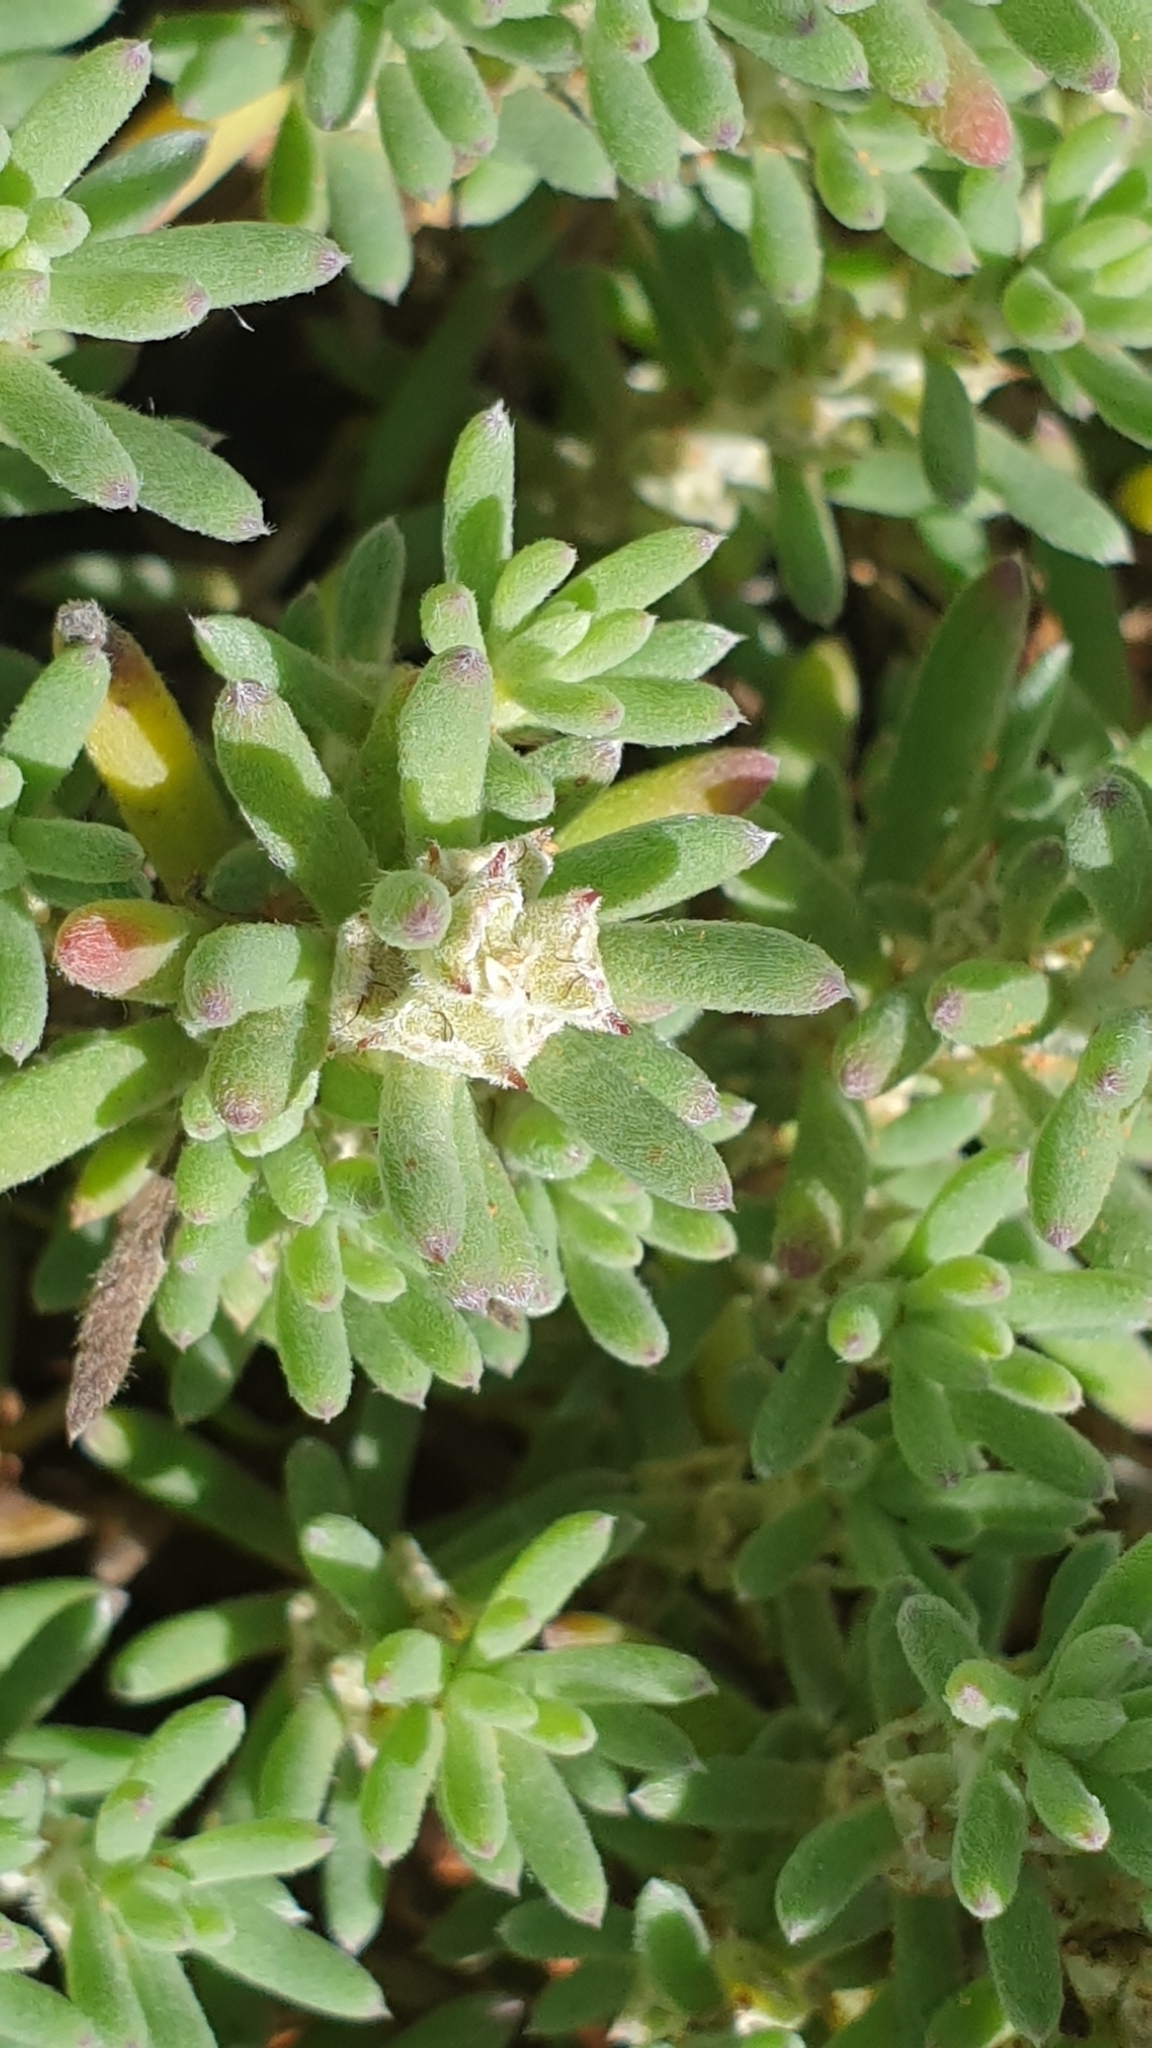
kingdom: Plantae
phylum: Tracheophyta
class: Magnoliopsida
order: Caryophyllales
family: Amaranthaceae
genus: Sclerolaena
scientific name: Sclerolaena diacantha
